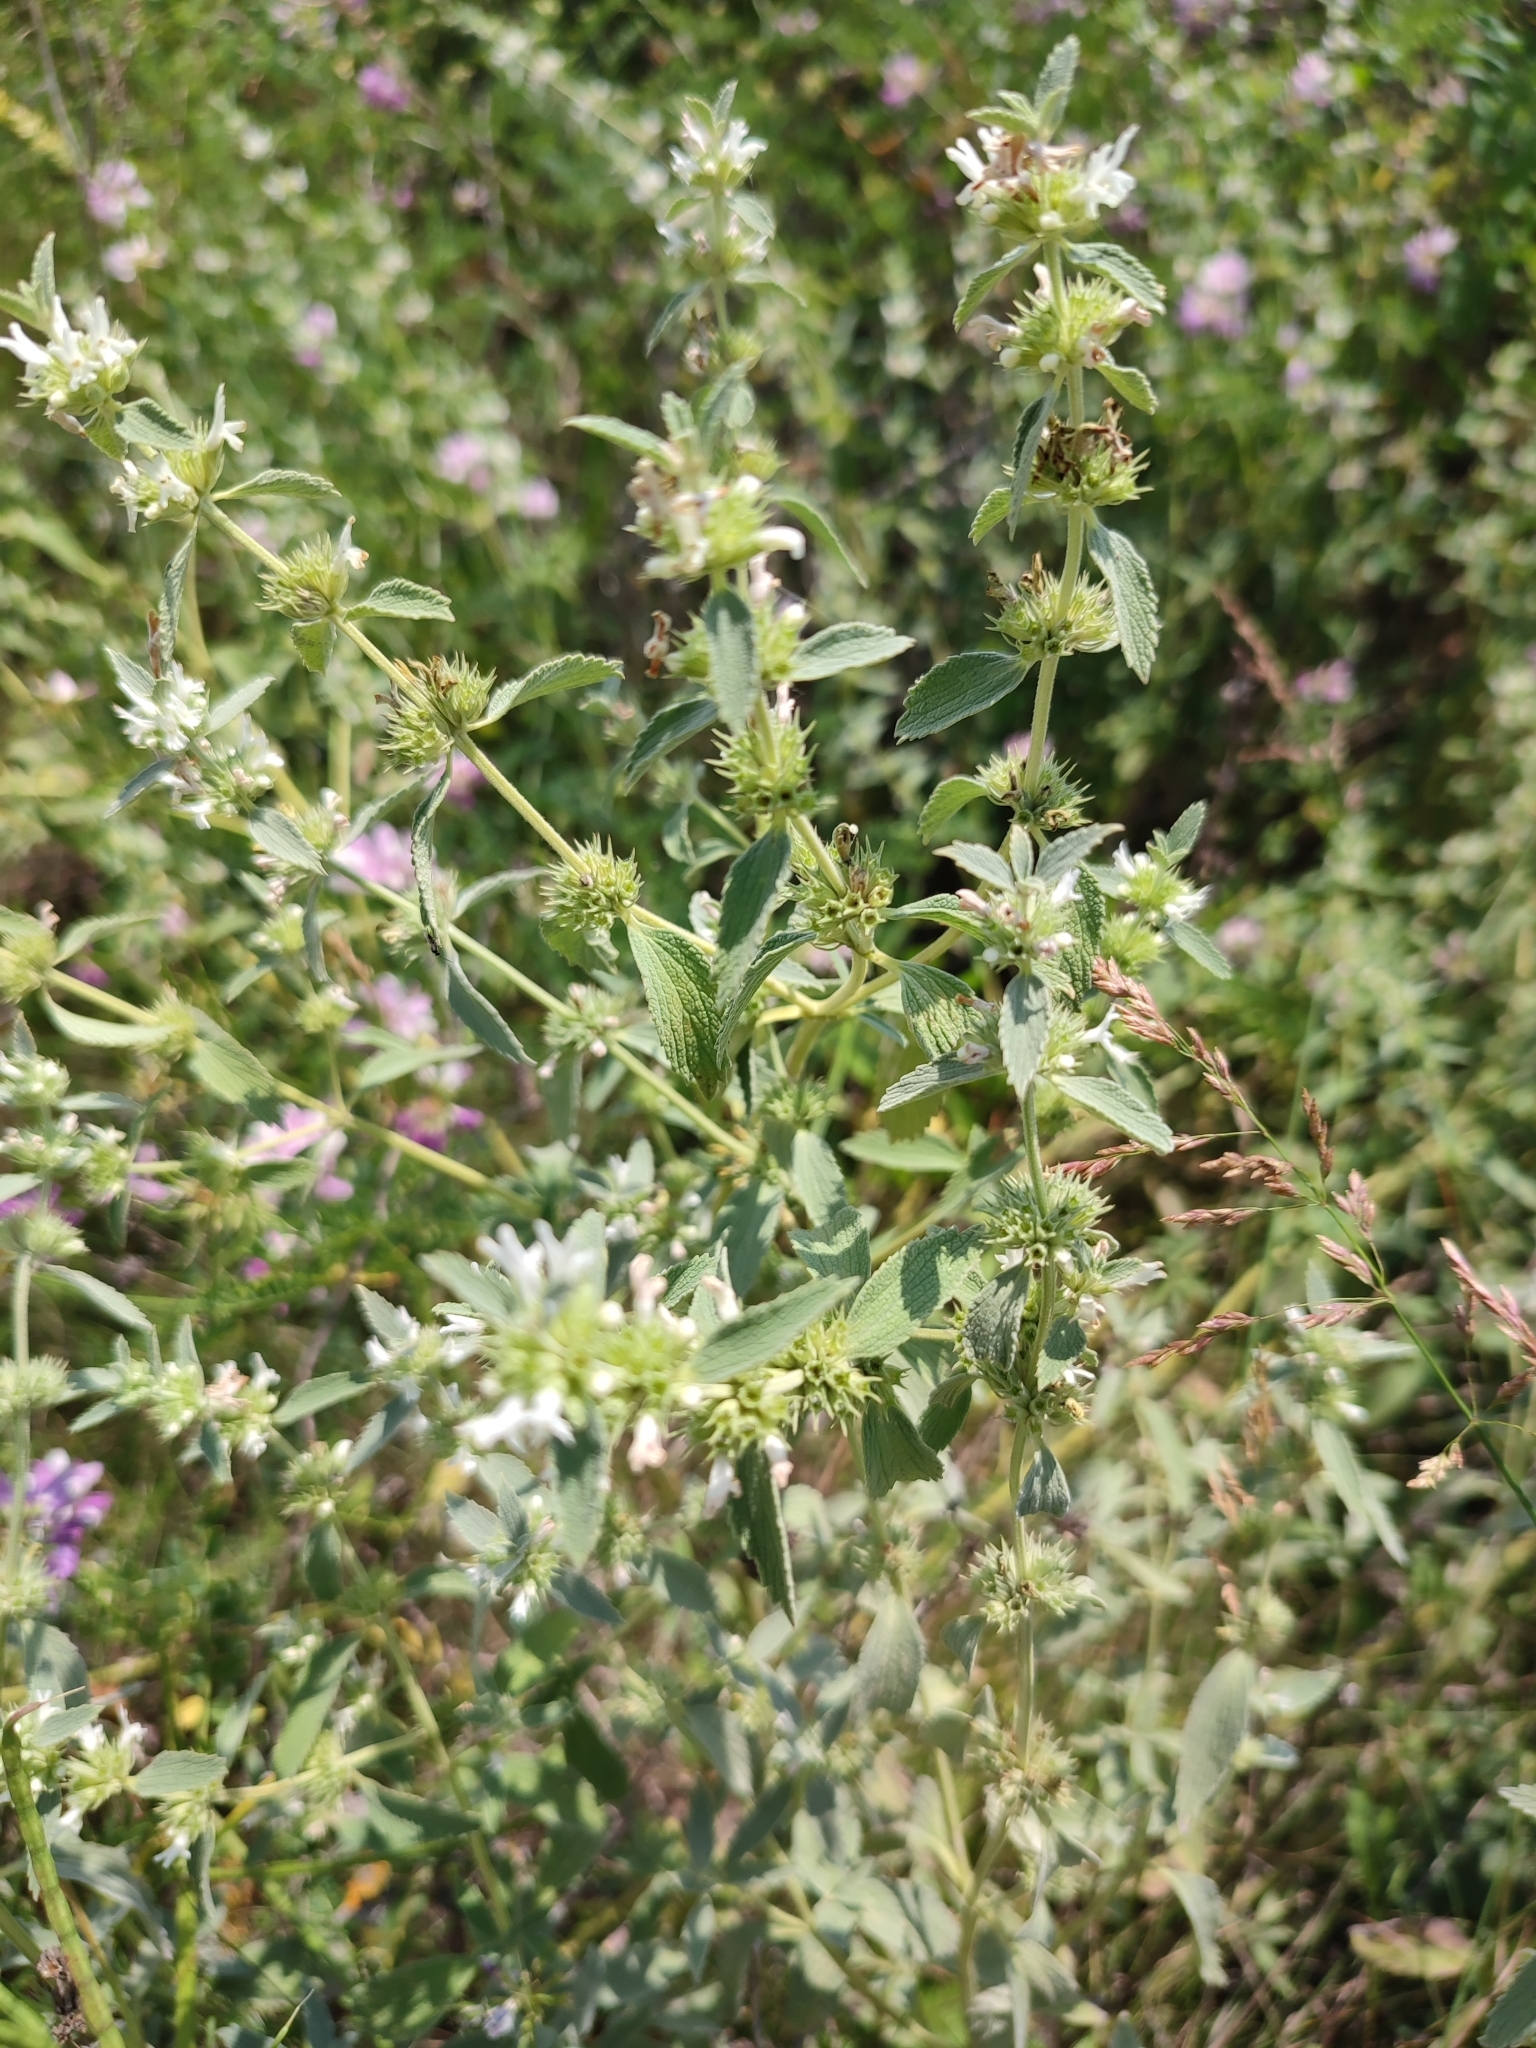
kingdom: Plantae
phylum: Tracheophyta
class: Magnoliopsida
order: Lamiales
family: Lamiaceae
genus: Marrubium
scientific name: Marrubium peregrinum
